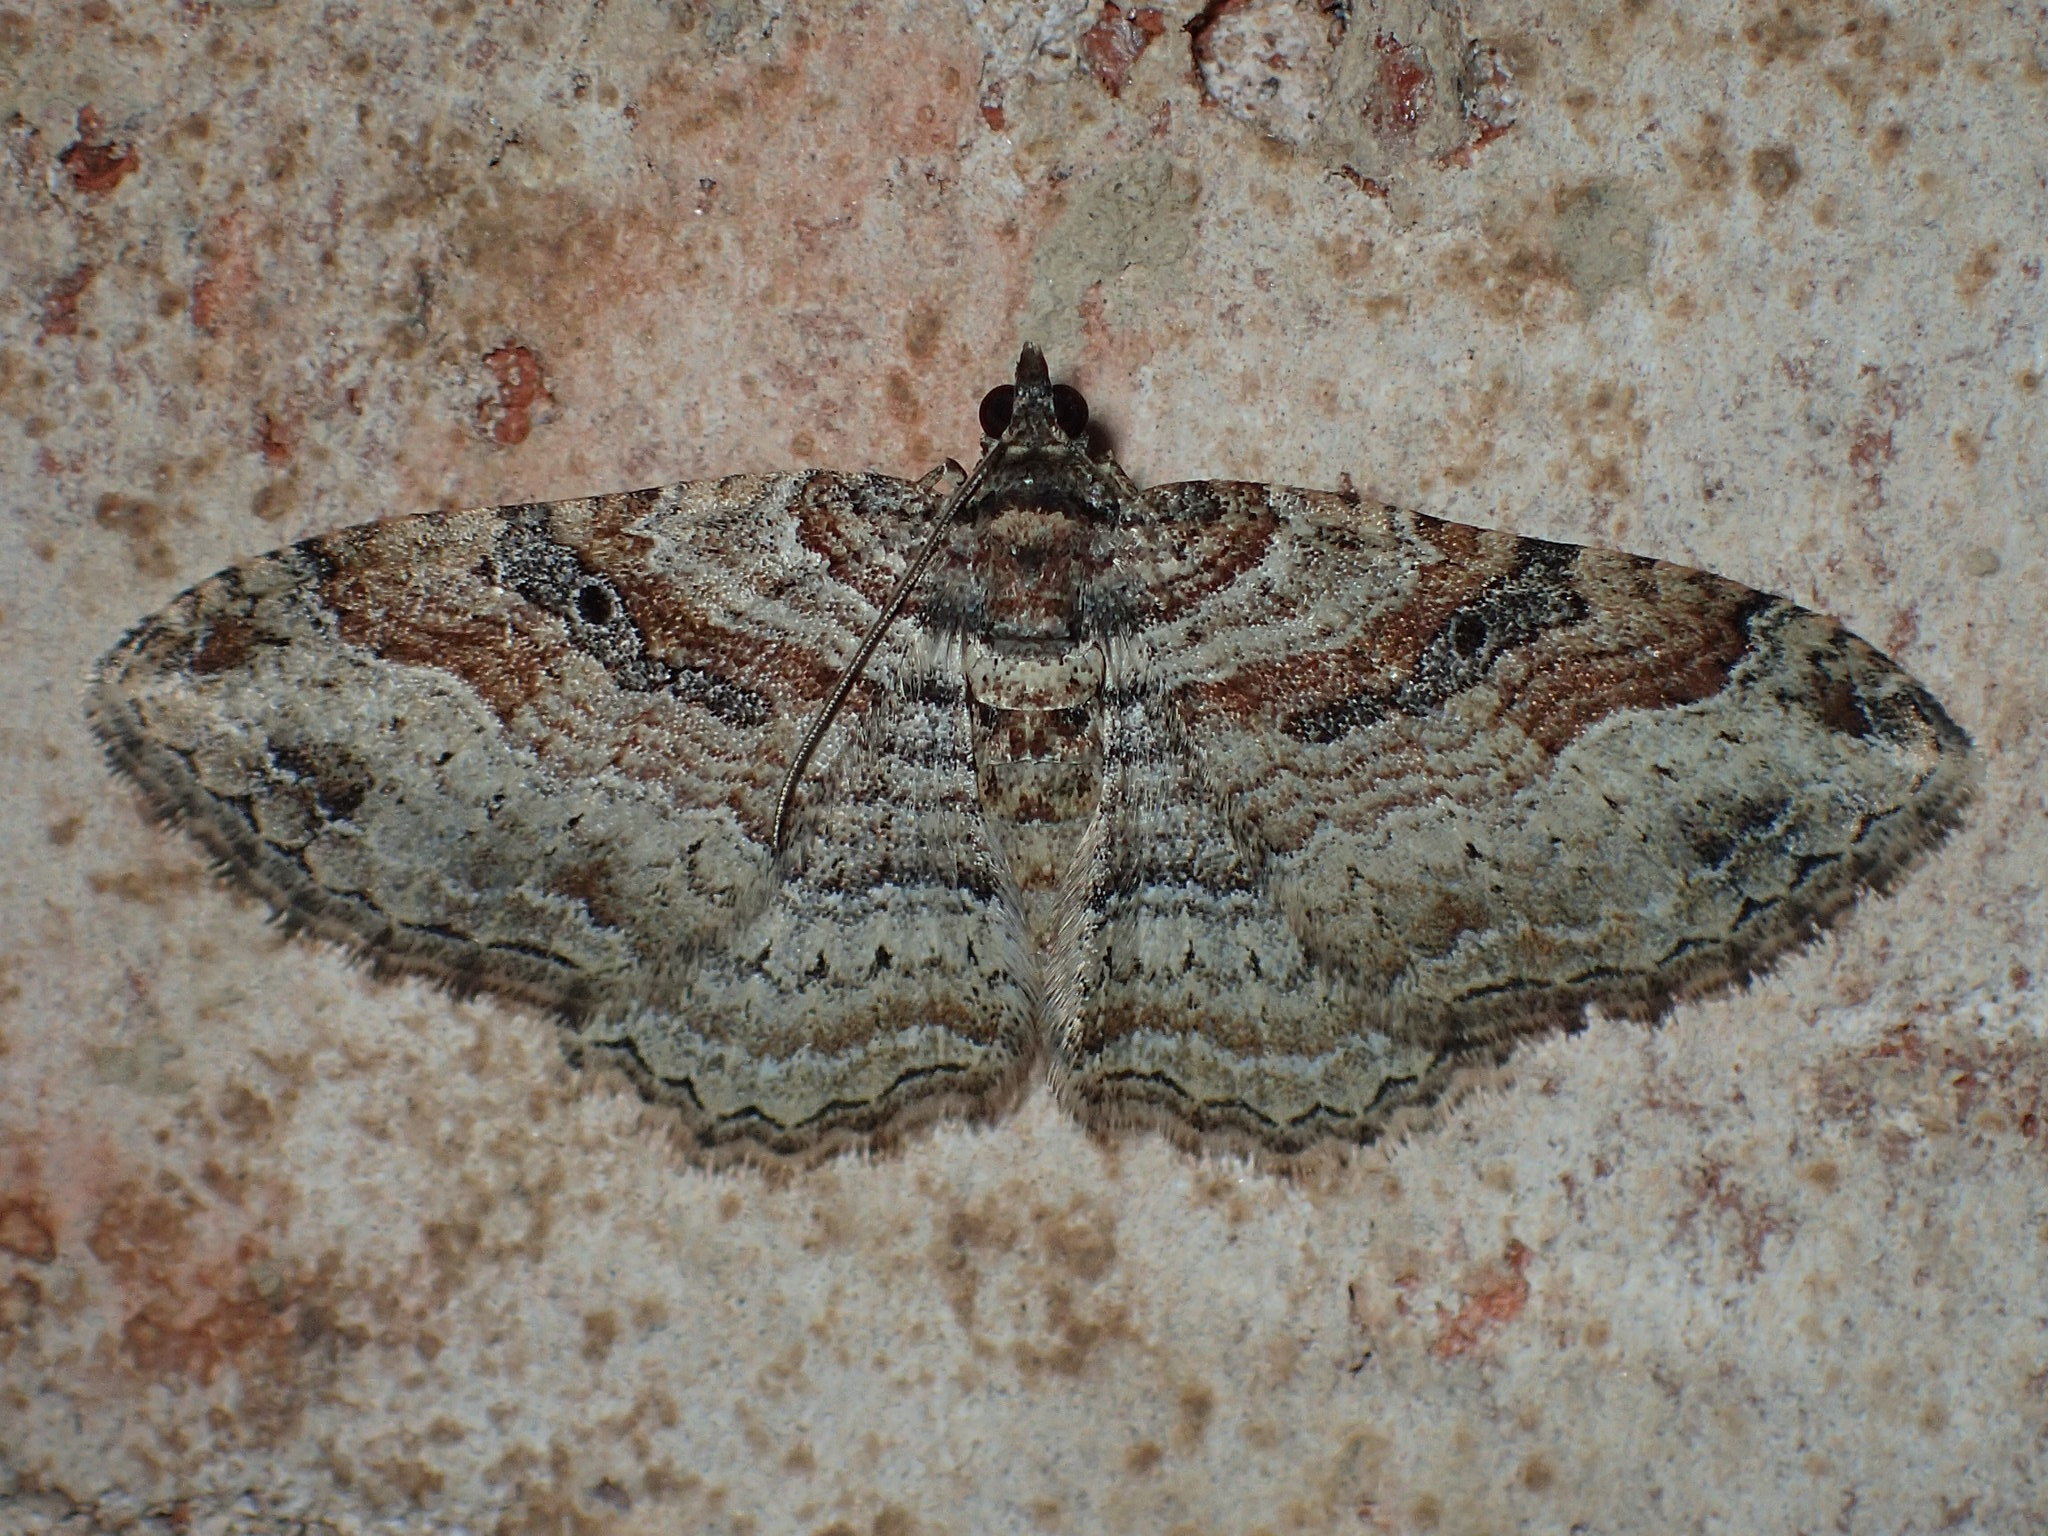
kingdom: Animalia
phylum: Arthropoda
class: Insecta
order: Lepidoptera
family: Geometridae
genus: Costaconvexa
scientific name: Costaconvexa centrostrigaria
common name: Bent-line carpet
